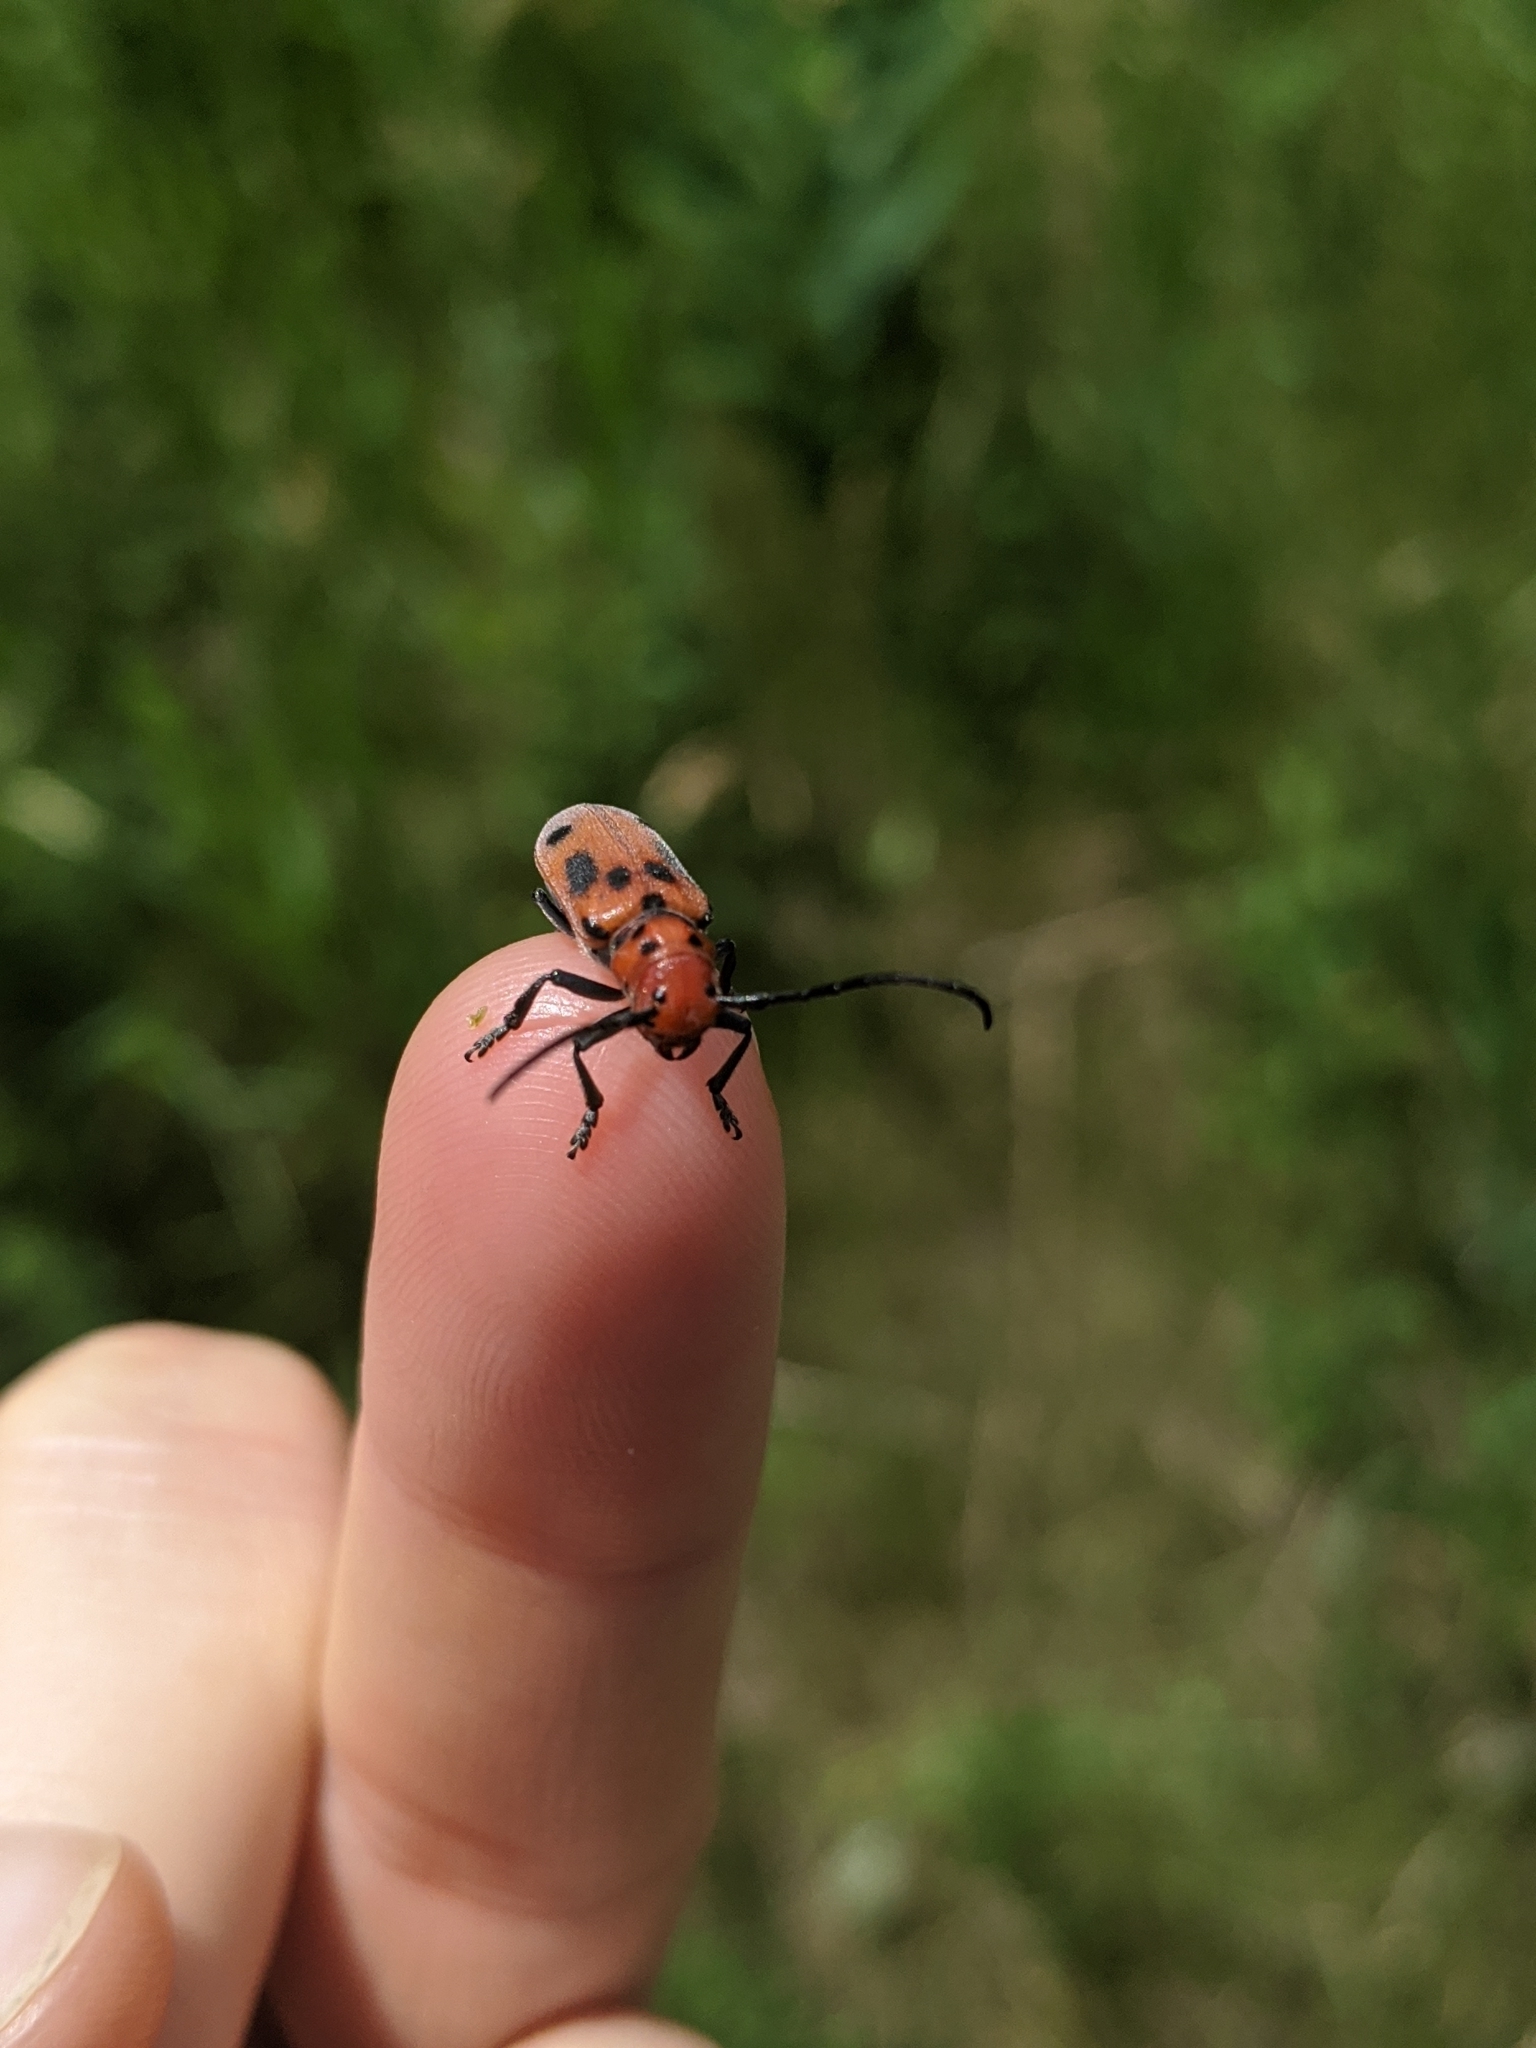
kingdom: Animalia
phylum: Arthropoda
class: Insecta
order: Coleoptera
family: Cerambycidae
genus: Tetraopes
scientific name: Tetraopes tetrophthalmus
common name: Red milkweed beetle
